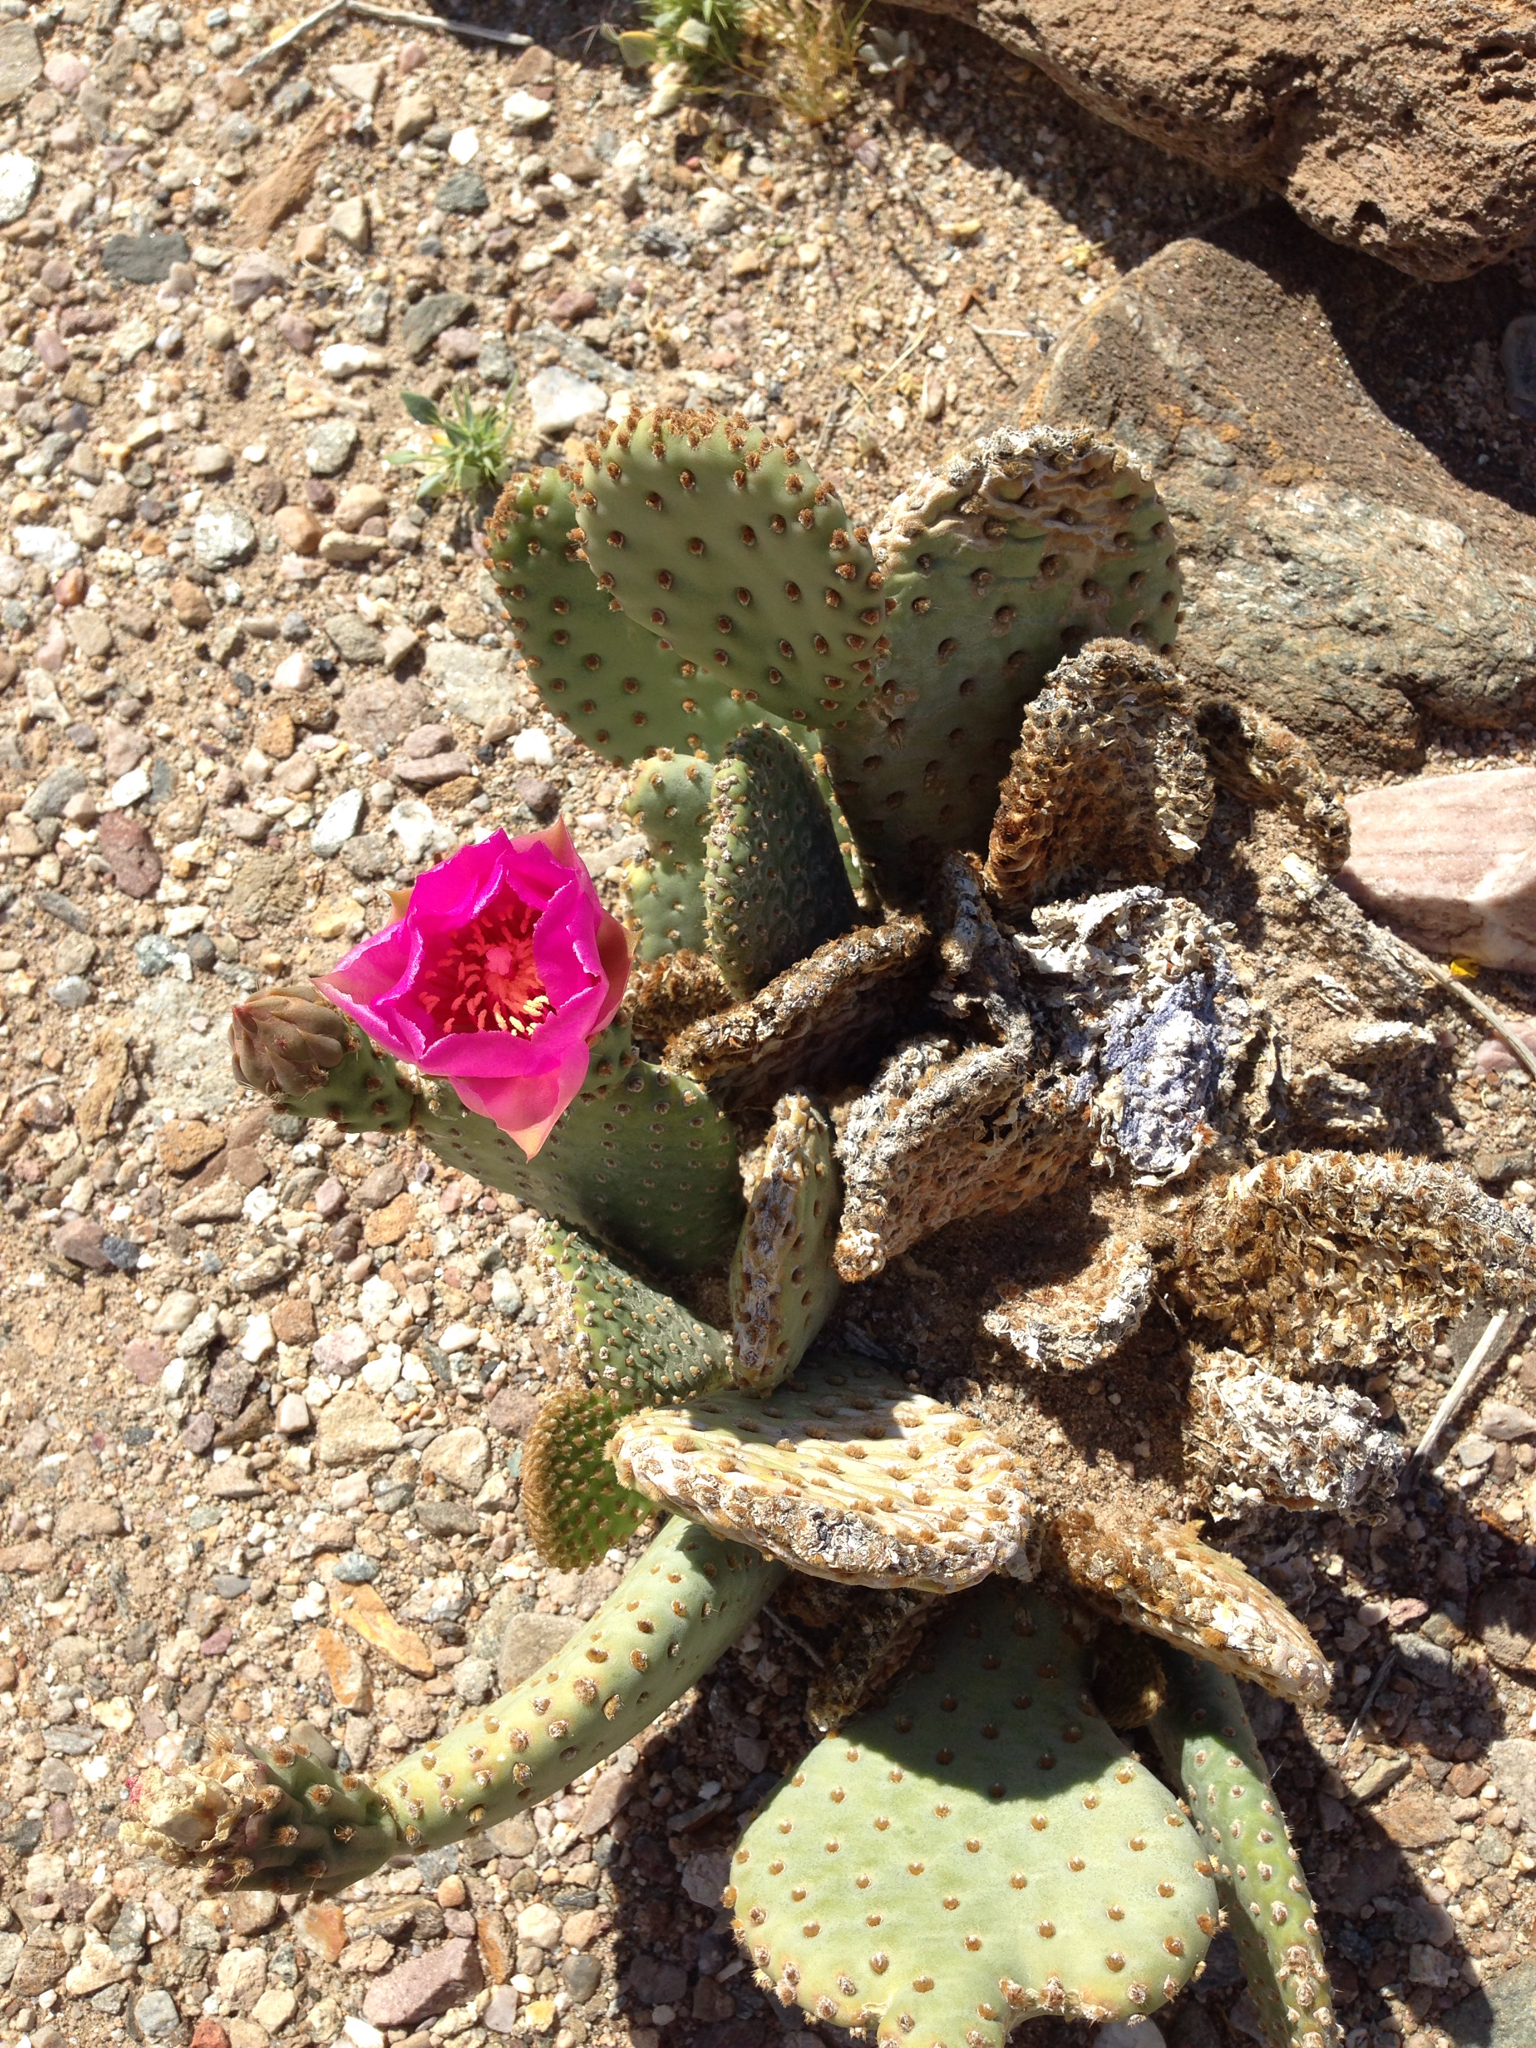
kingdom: Plantae
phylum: Tracheophyta
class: Magnoliopsida
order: Caryophyllales
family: Cactaceae
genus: Opuntia
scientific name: Opuntia basilaris
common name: Beavertail prickly-pear
